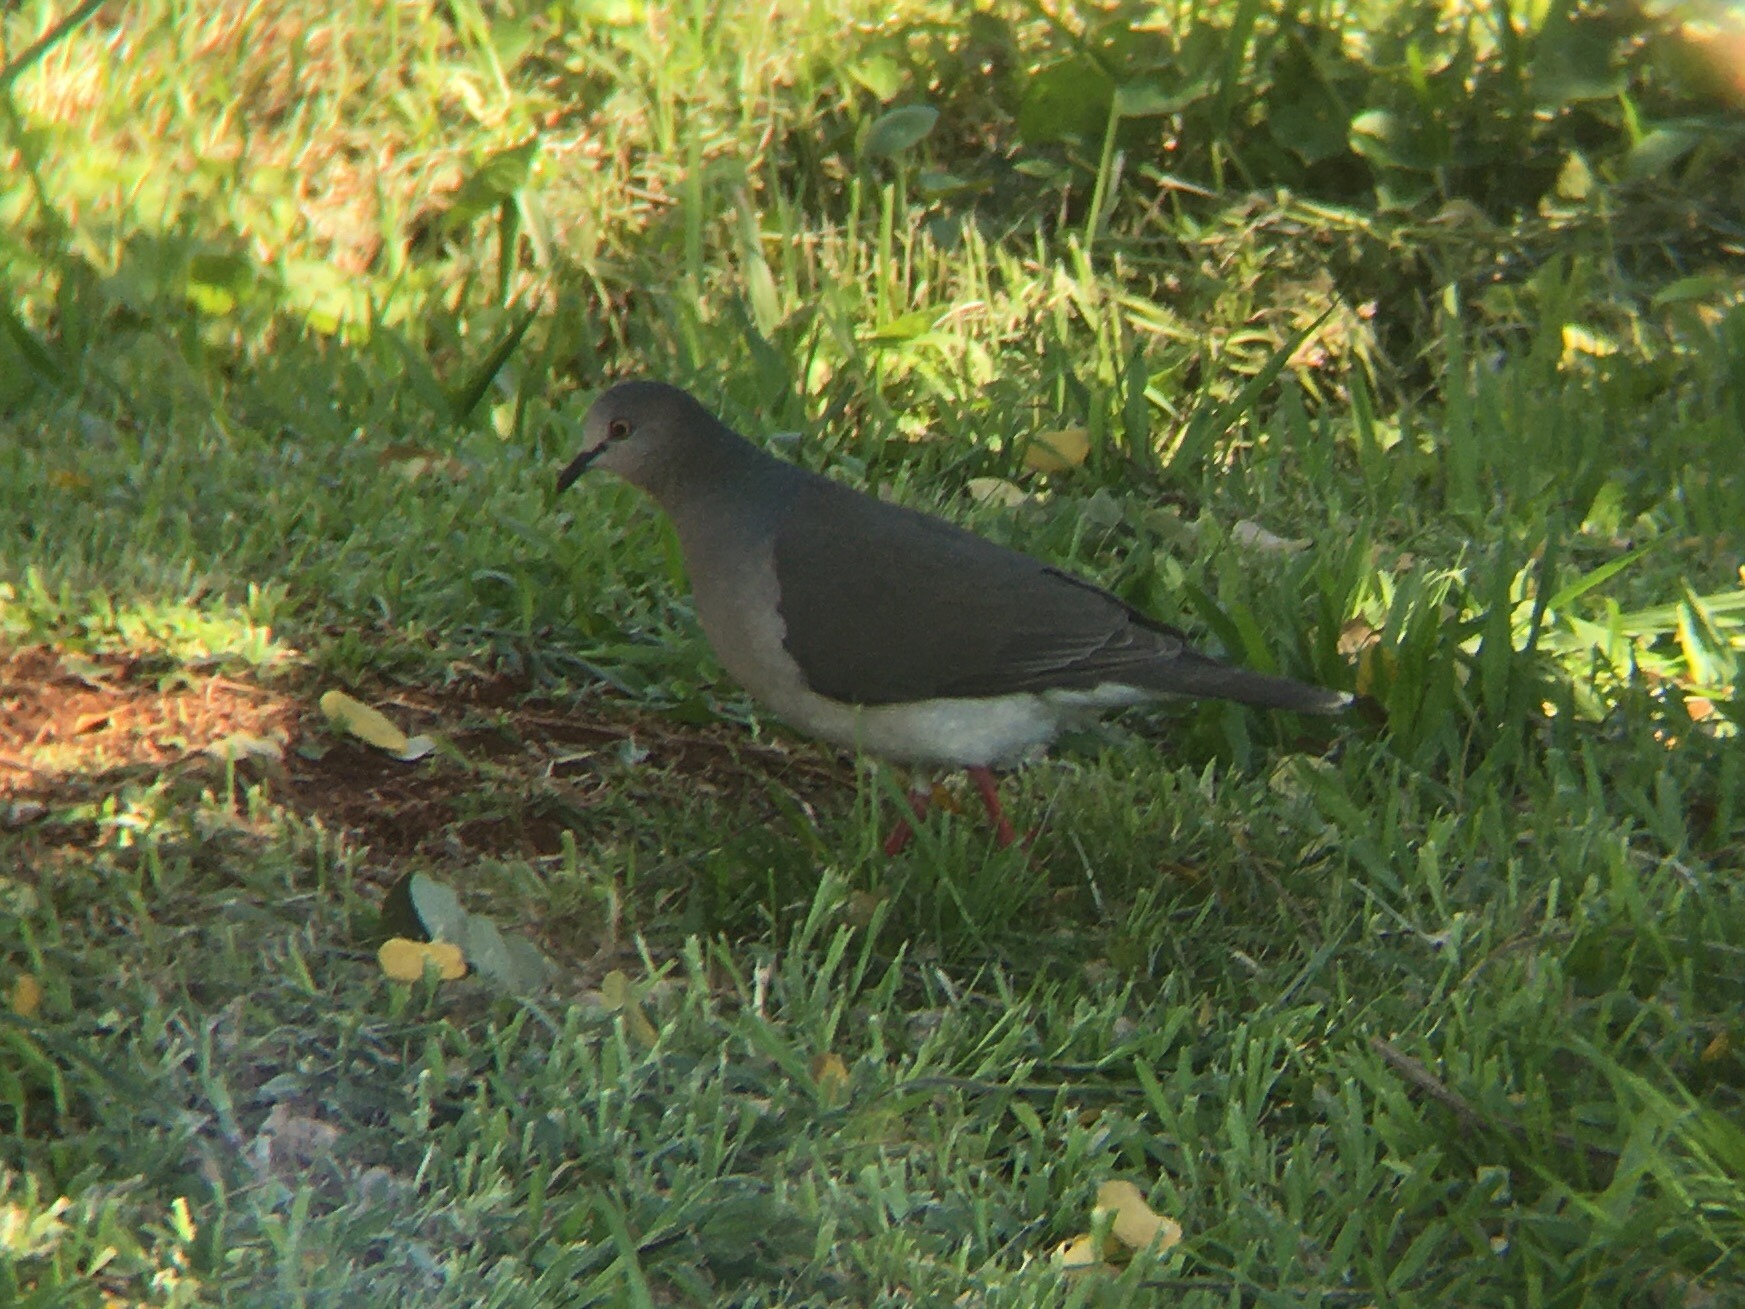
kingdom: Animalia
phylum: Chordata
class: Aves
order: Columbiformes
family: Columbidae
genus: Leptotila
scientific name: Leptotila verreauxi
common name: White-tipped dove
